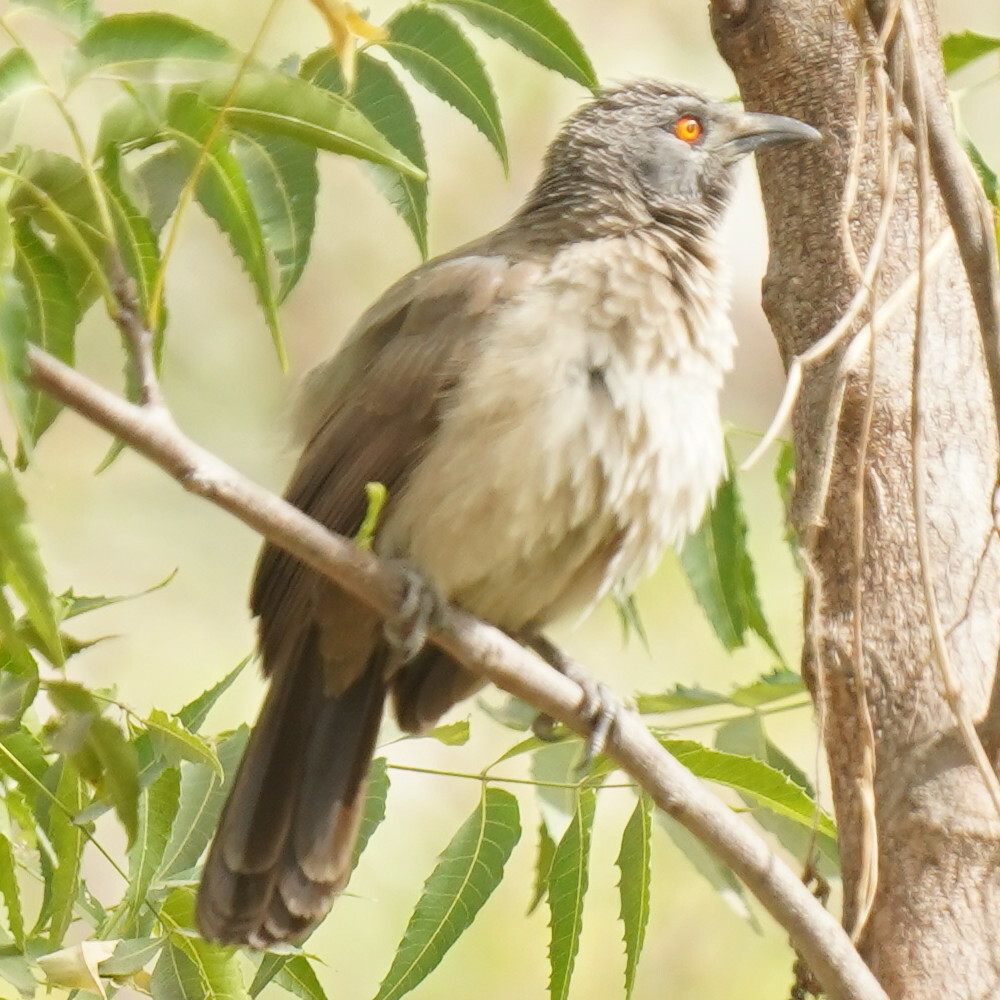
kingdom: Animalia
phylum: Chordata
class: Aves
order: Passeriformes
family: Leiothrichidae
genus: Turdoides
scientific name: Turdoides plebejus
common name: Brown babbler
